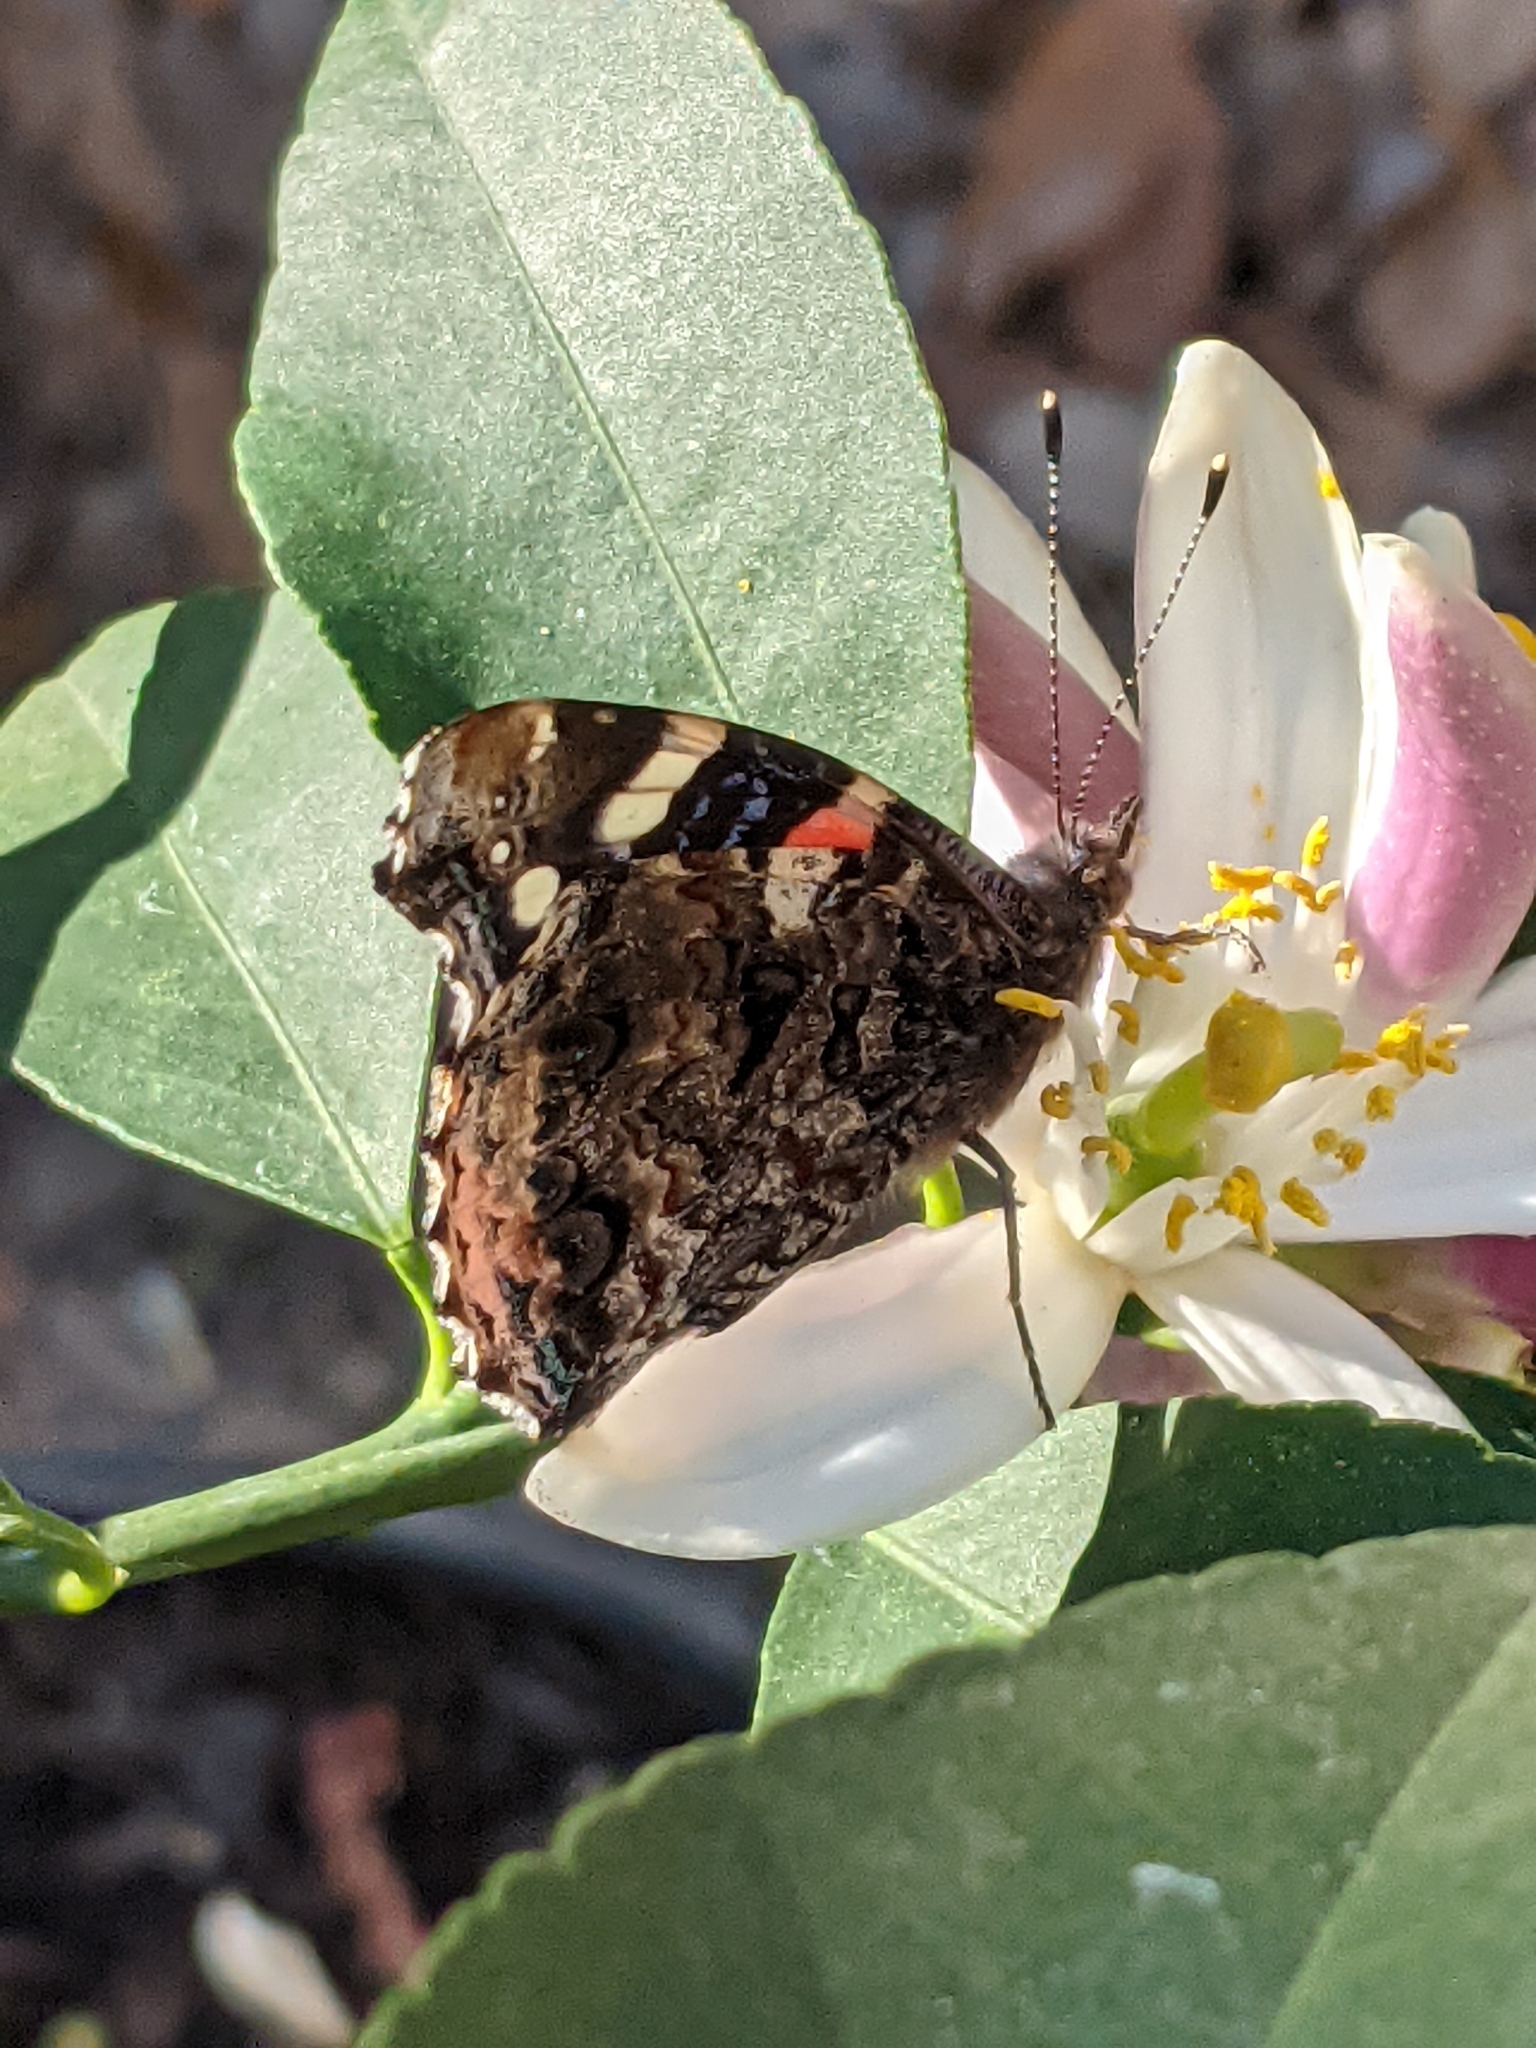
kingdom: Animalia
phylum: Arthropoda
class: Insecta
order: Lepidoptera
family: Nymphalidae
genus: Vanessa
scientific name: Vanessa atalanta
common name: Red admiral
